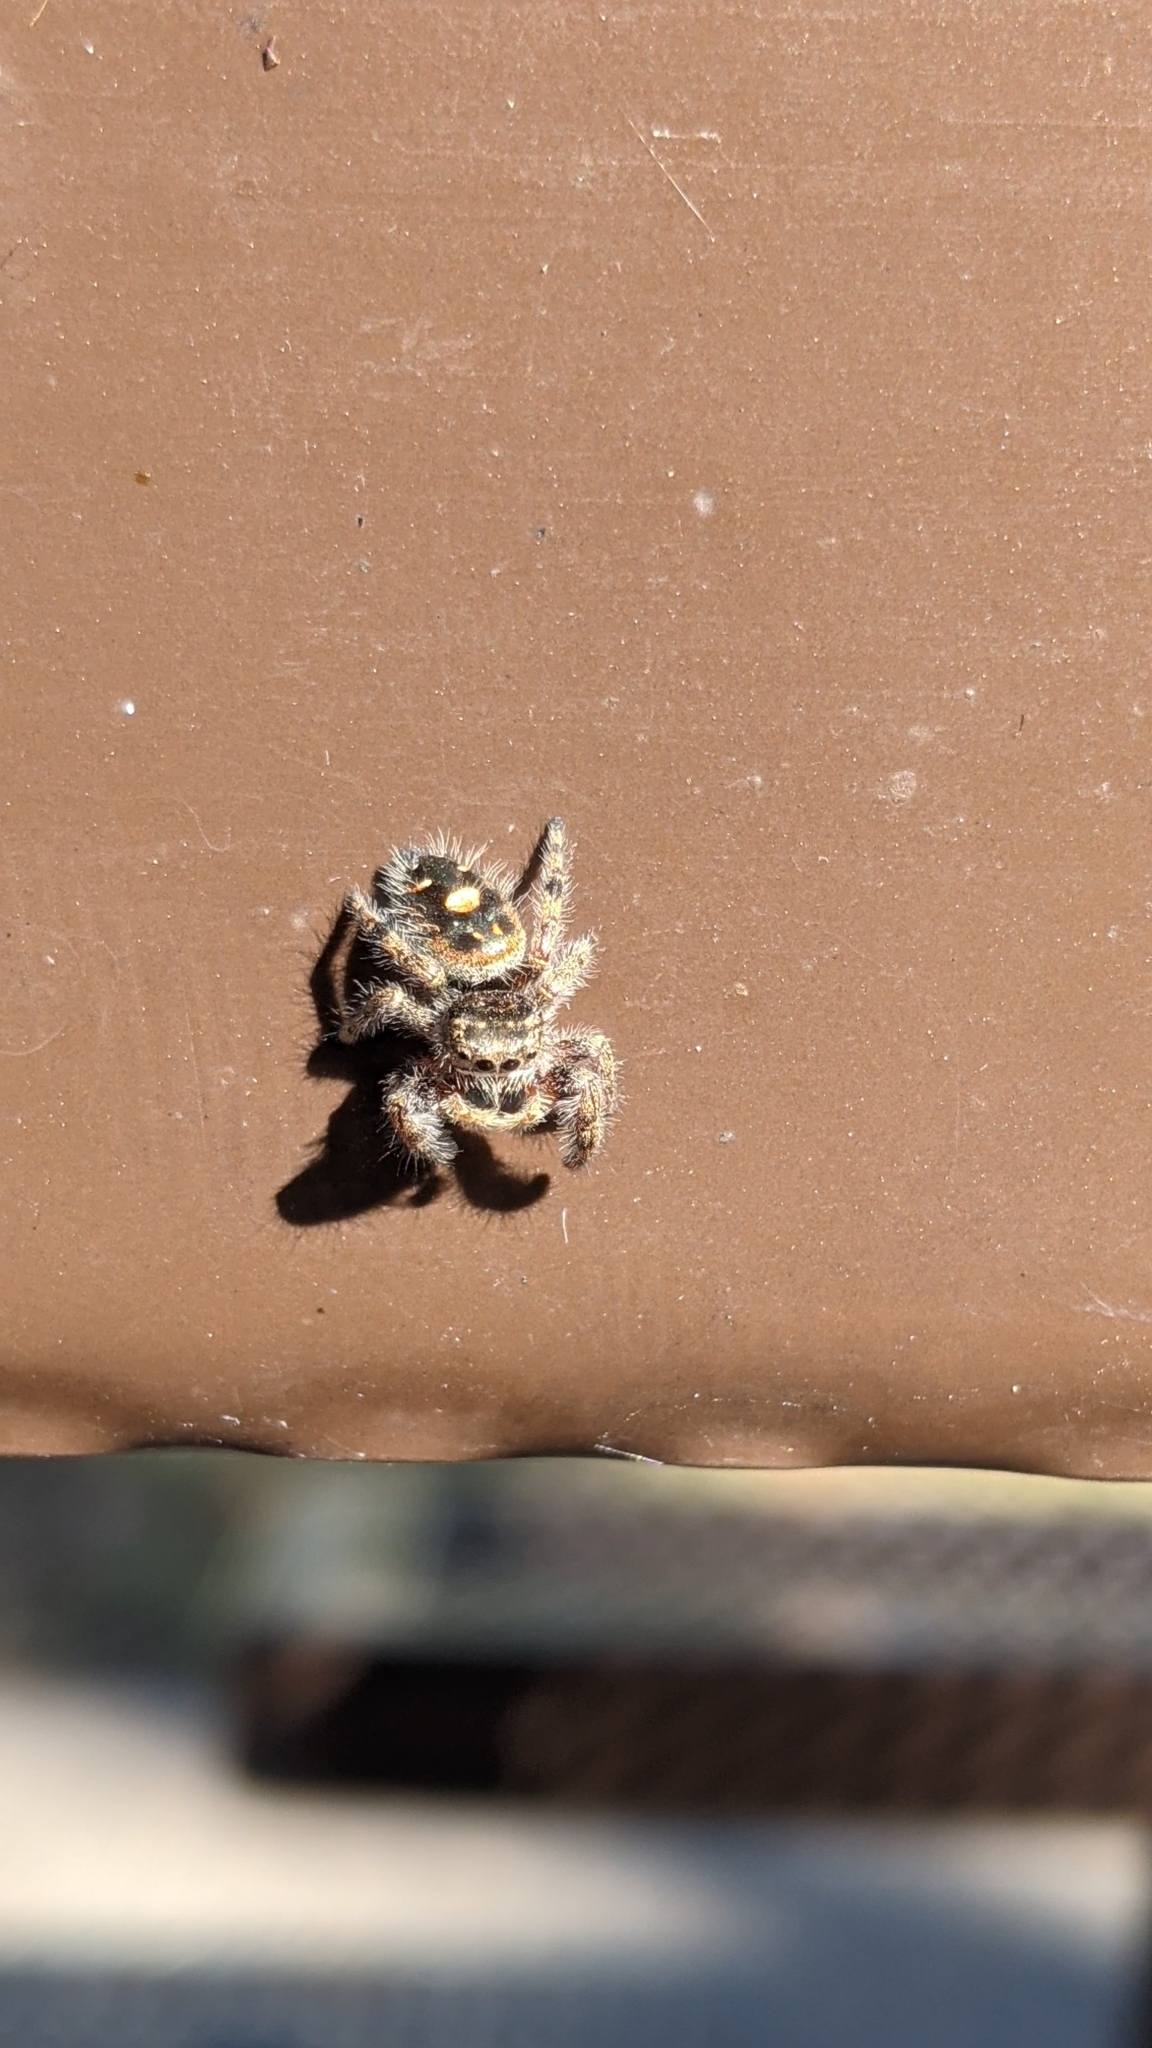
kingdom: Animalia
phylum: Arthropoda
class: Arachnida
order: Araneae
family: Salticidae
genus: Phidippus
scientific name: Phidippus audax
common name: Bold jumper
